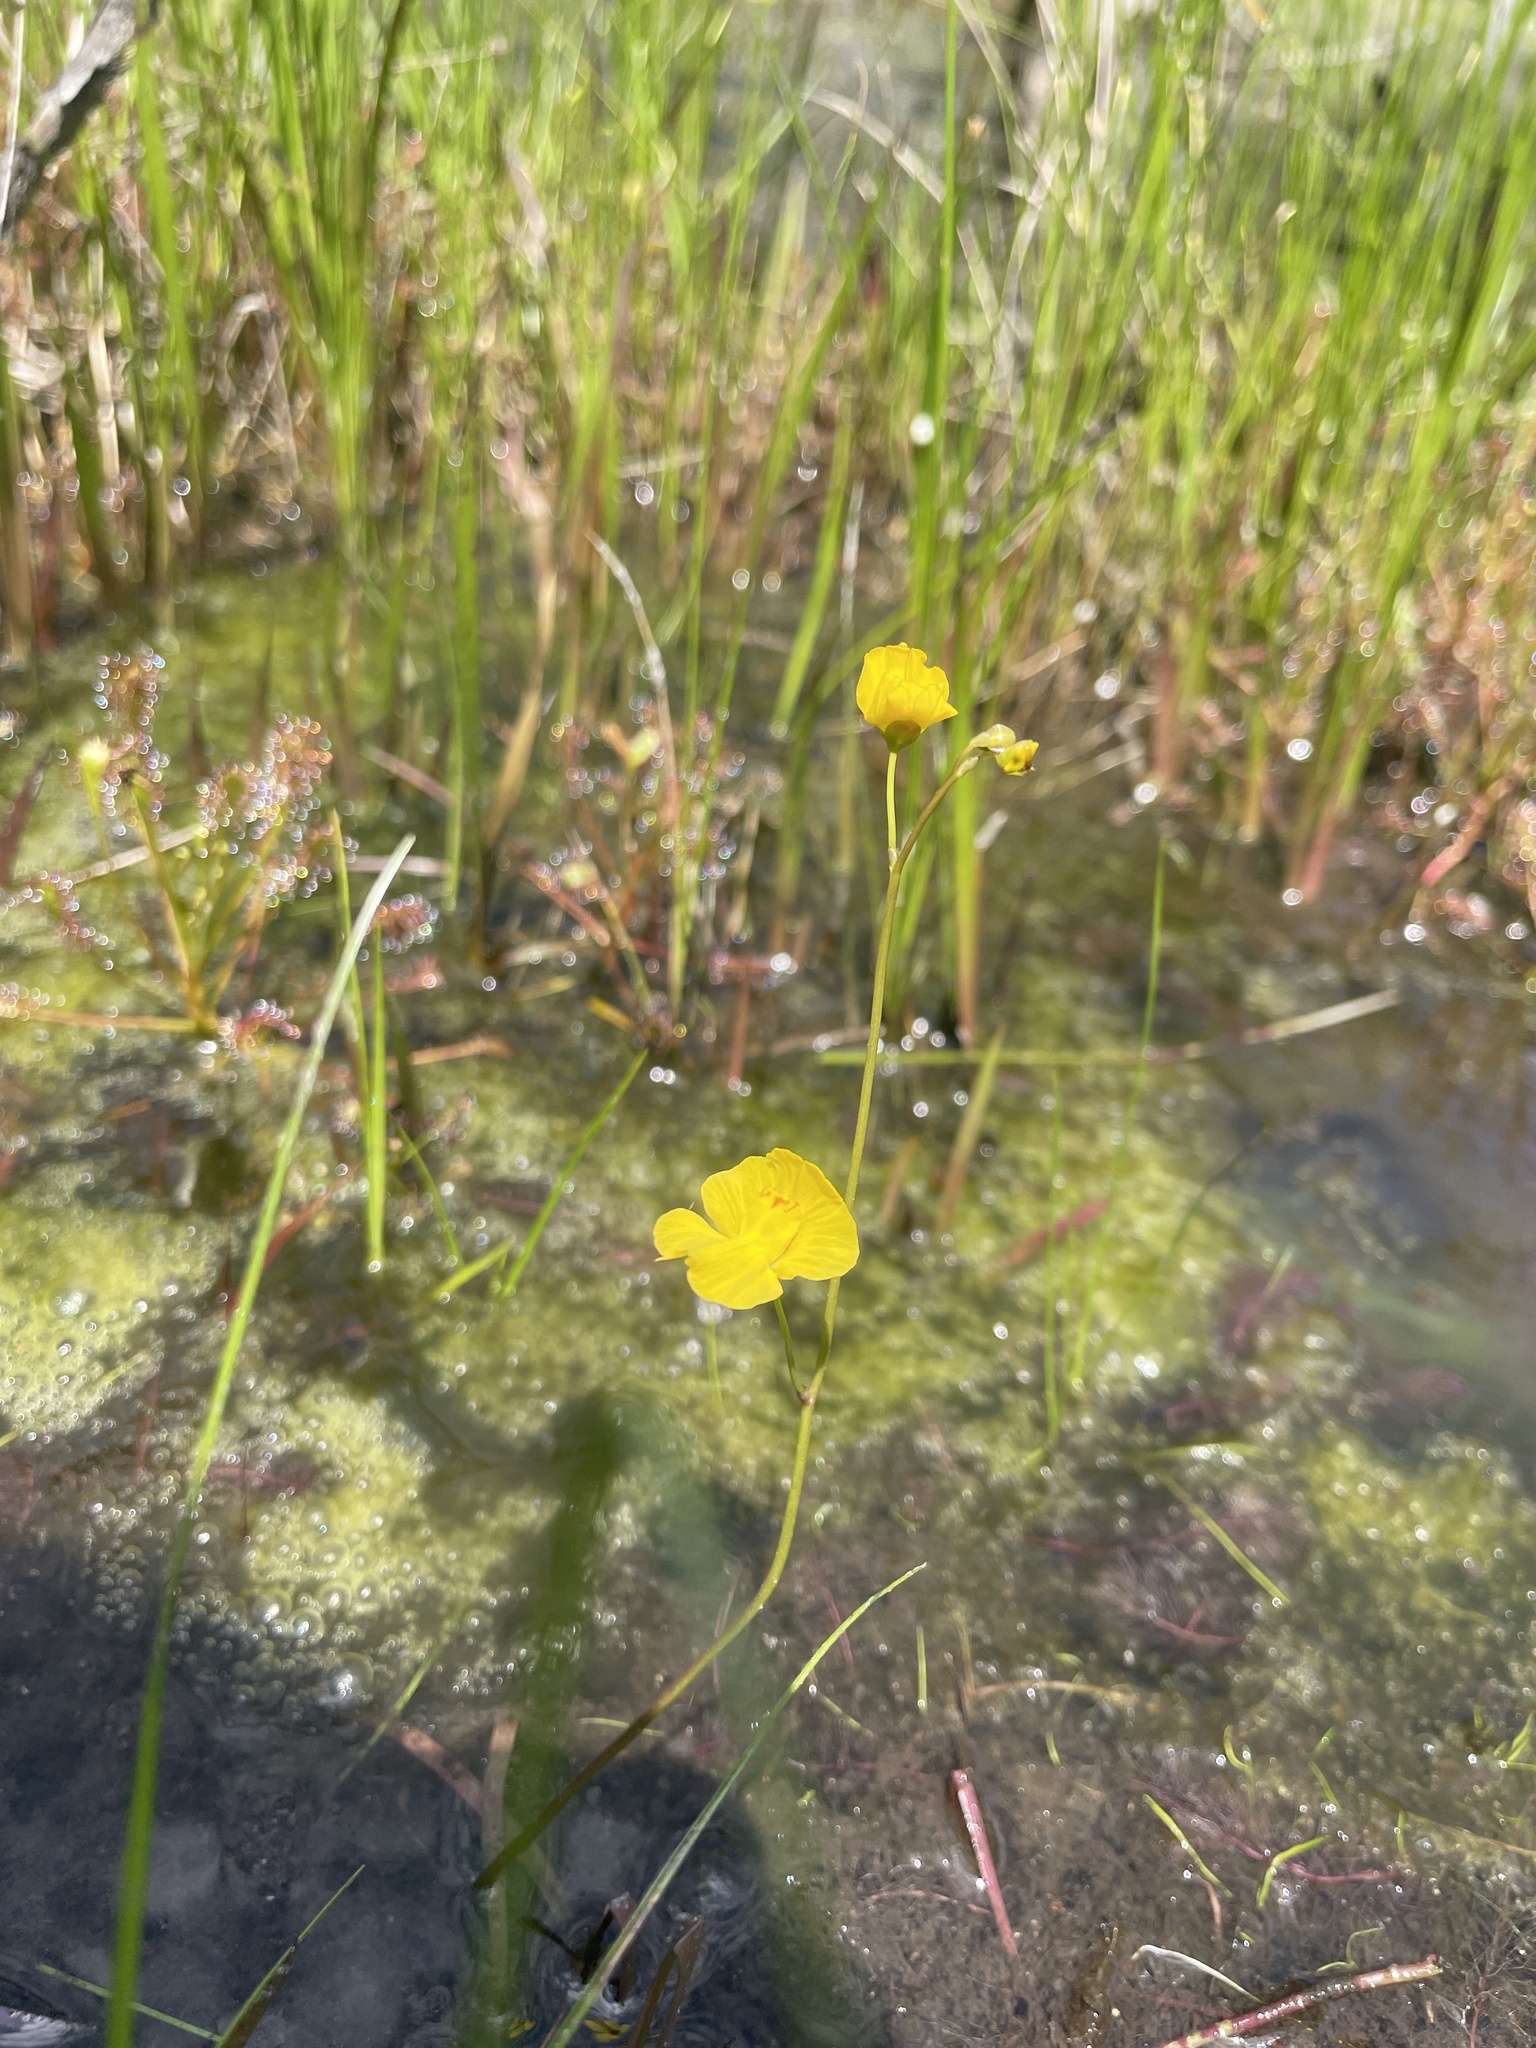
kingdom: Plantae
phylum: Tracheophyta
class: Magnoliopsida
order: Lamiales
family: Lentibulariaceae
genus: Utricularia
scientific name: Utricularia striata
